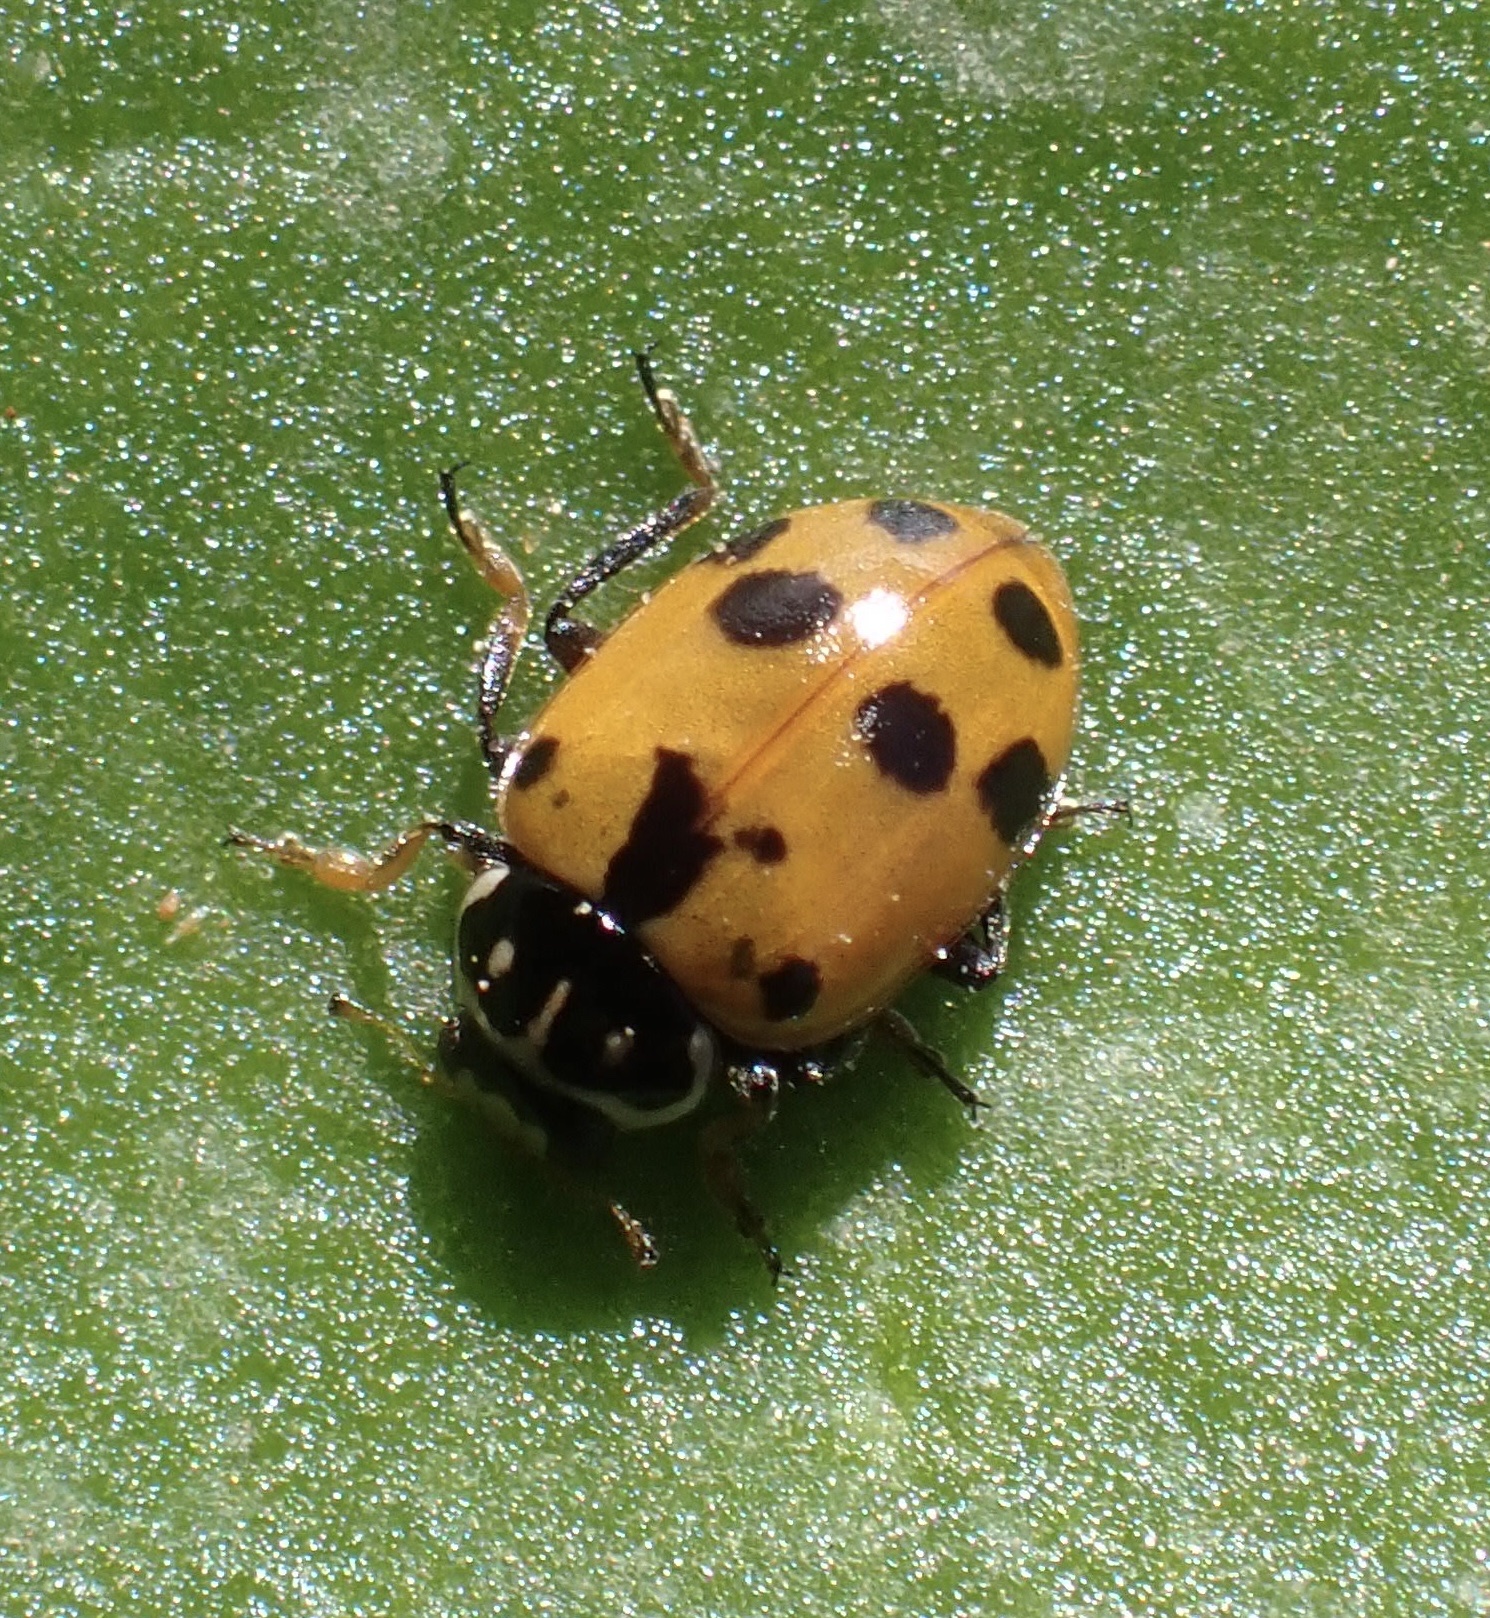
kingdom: Animalia
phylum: Arthropoda
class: Insecta
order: Coleoptera
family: Coccinellidae
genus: Hippodamia
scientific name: Hippodamia variegata
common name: Ladybird beetle
